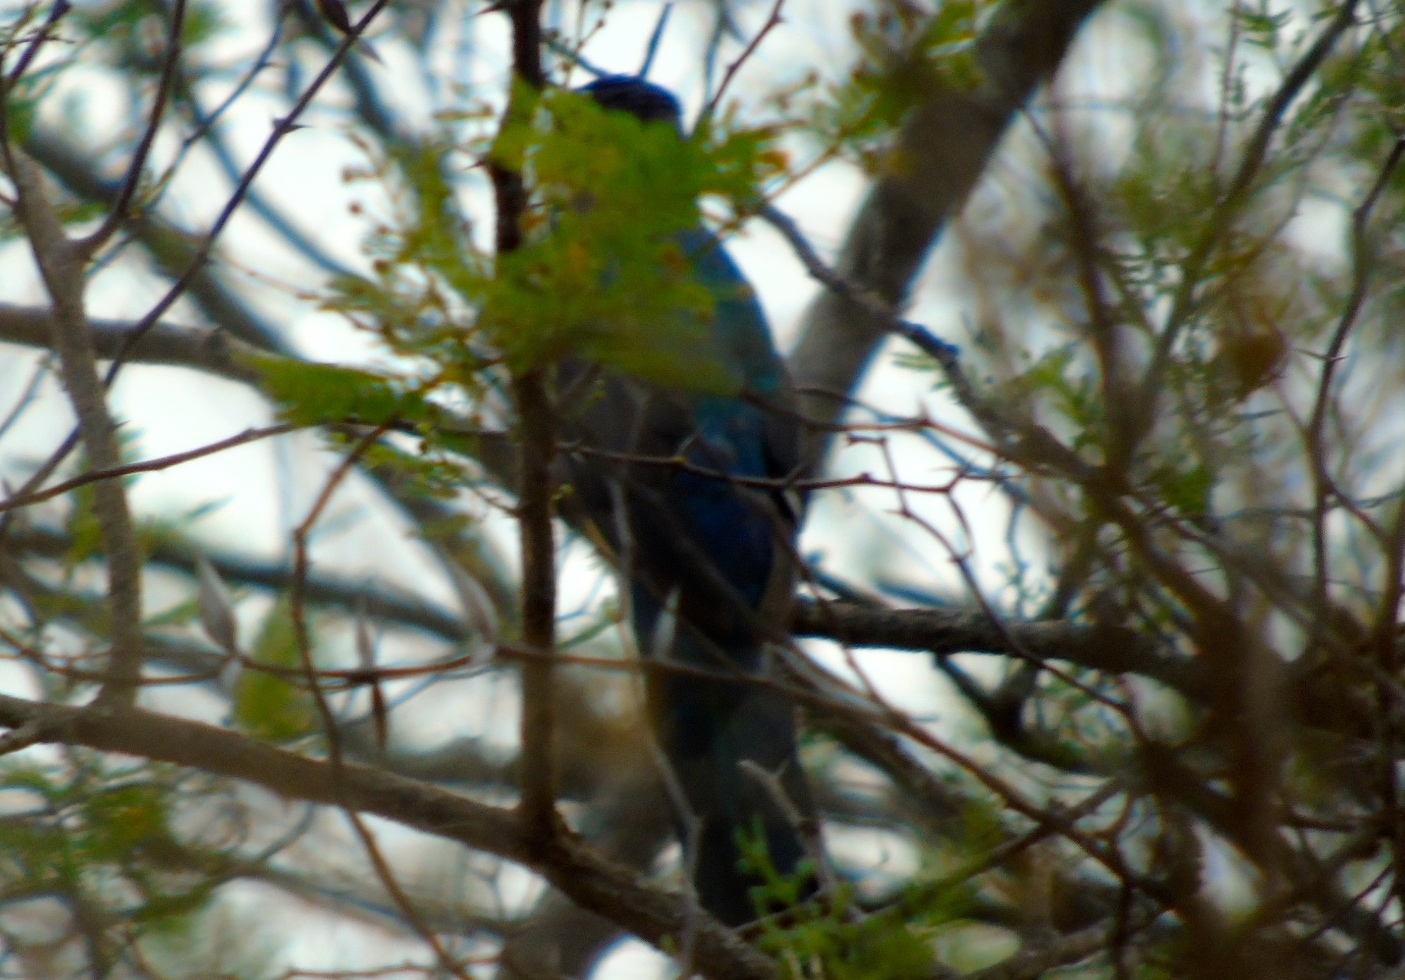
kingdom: Animalia
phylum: Chordata
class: Aves
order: Trogoniformes
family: Trogonidae
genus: Trogon
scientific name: Trogon citreolus
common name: Citreoline trogon
